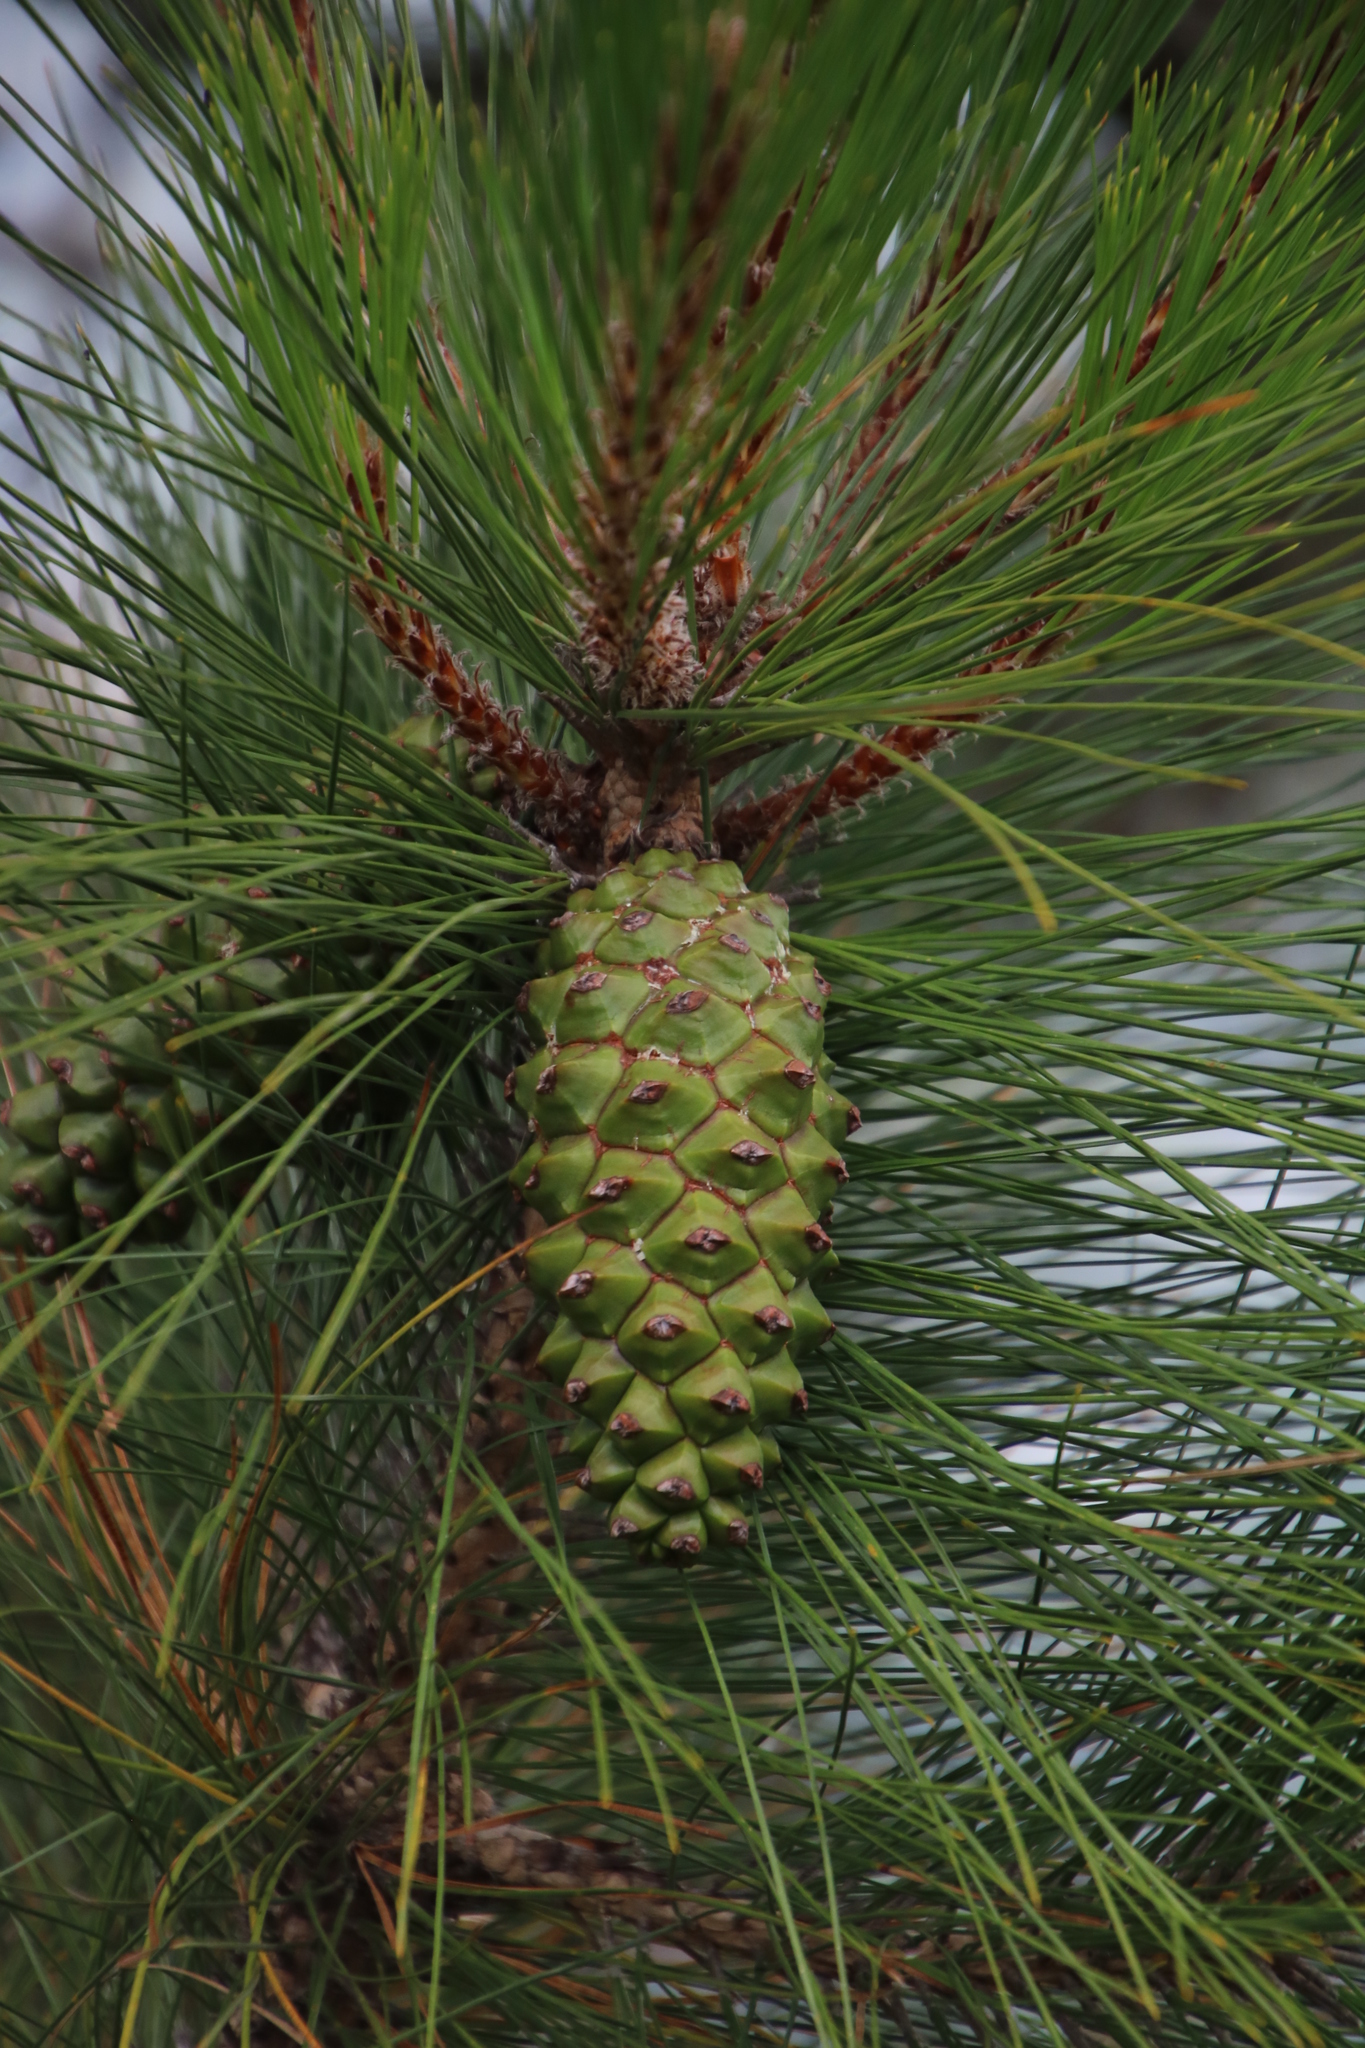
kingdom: Plantae
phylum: Tracheophyta
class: Pinopsida
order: Pinales
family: Pinaceae
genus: Pinus
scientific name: Pinus canariensis
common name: Canary islands pine
